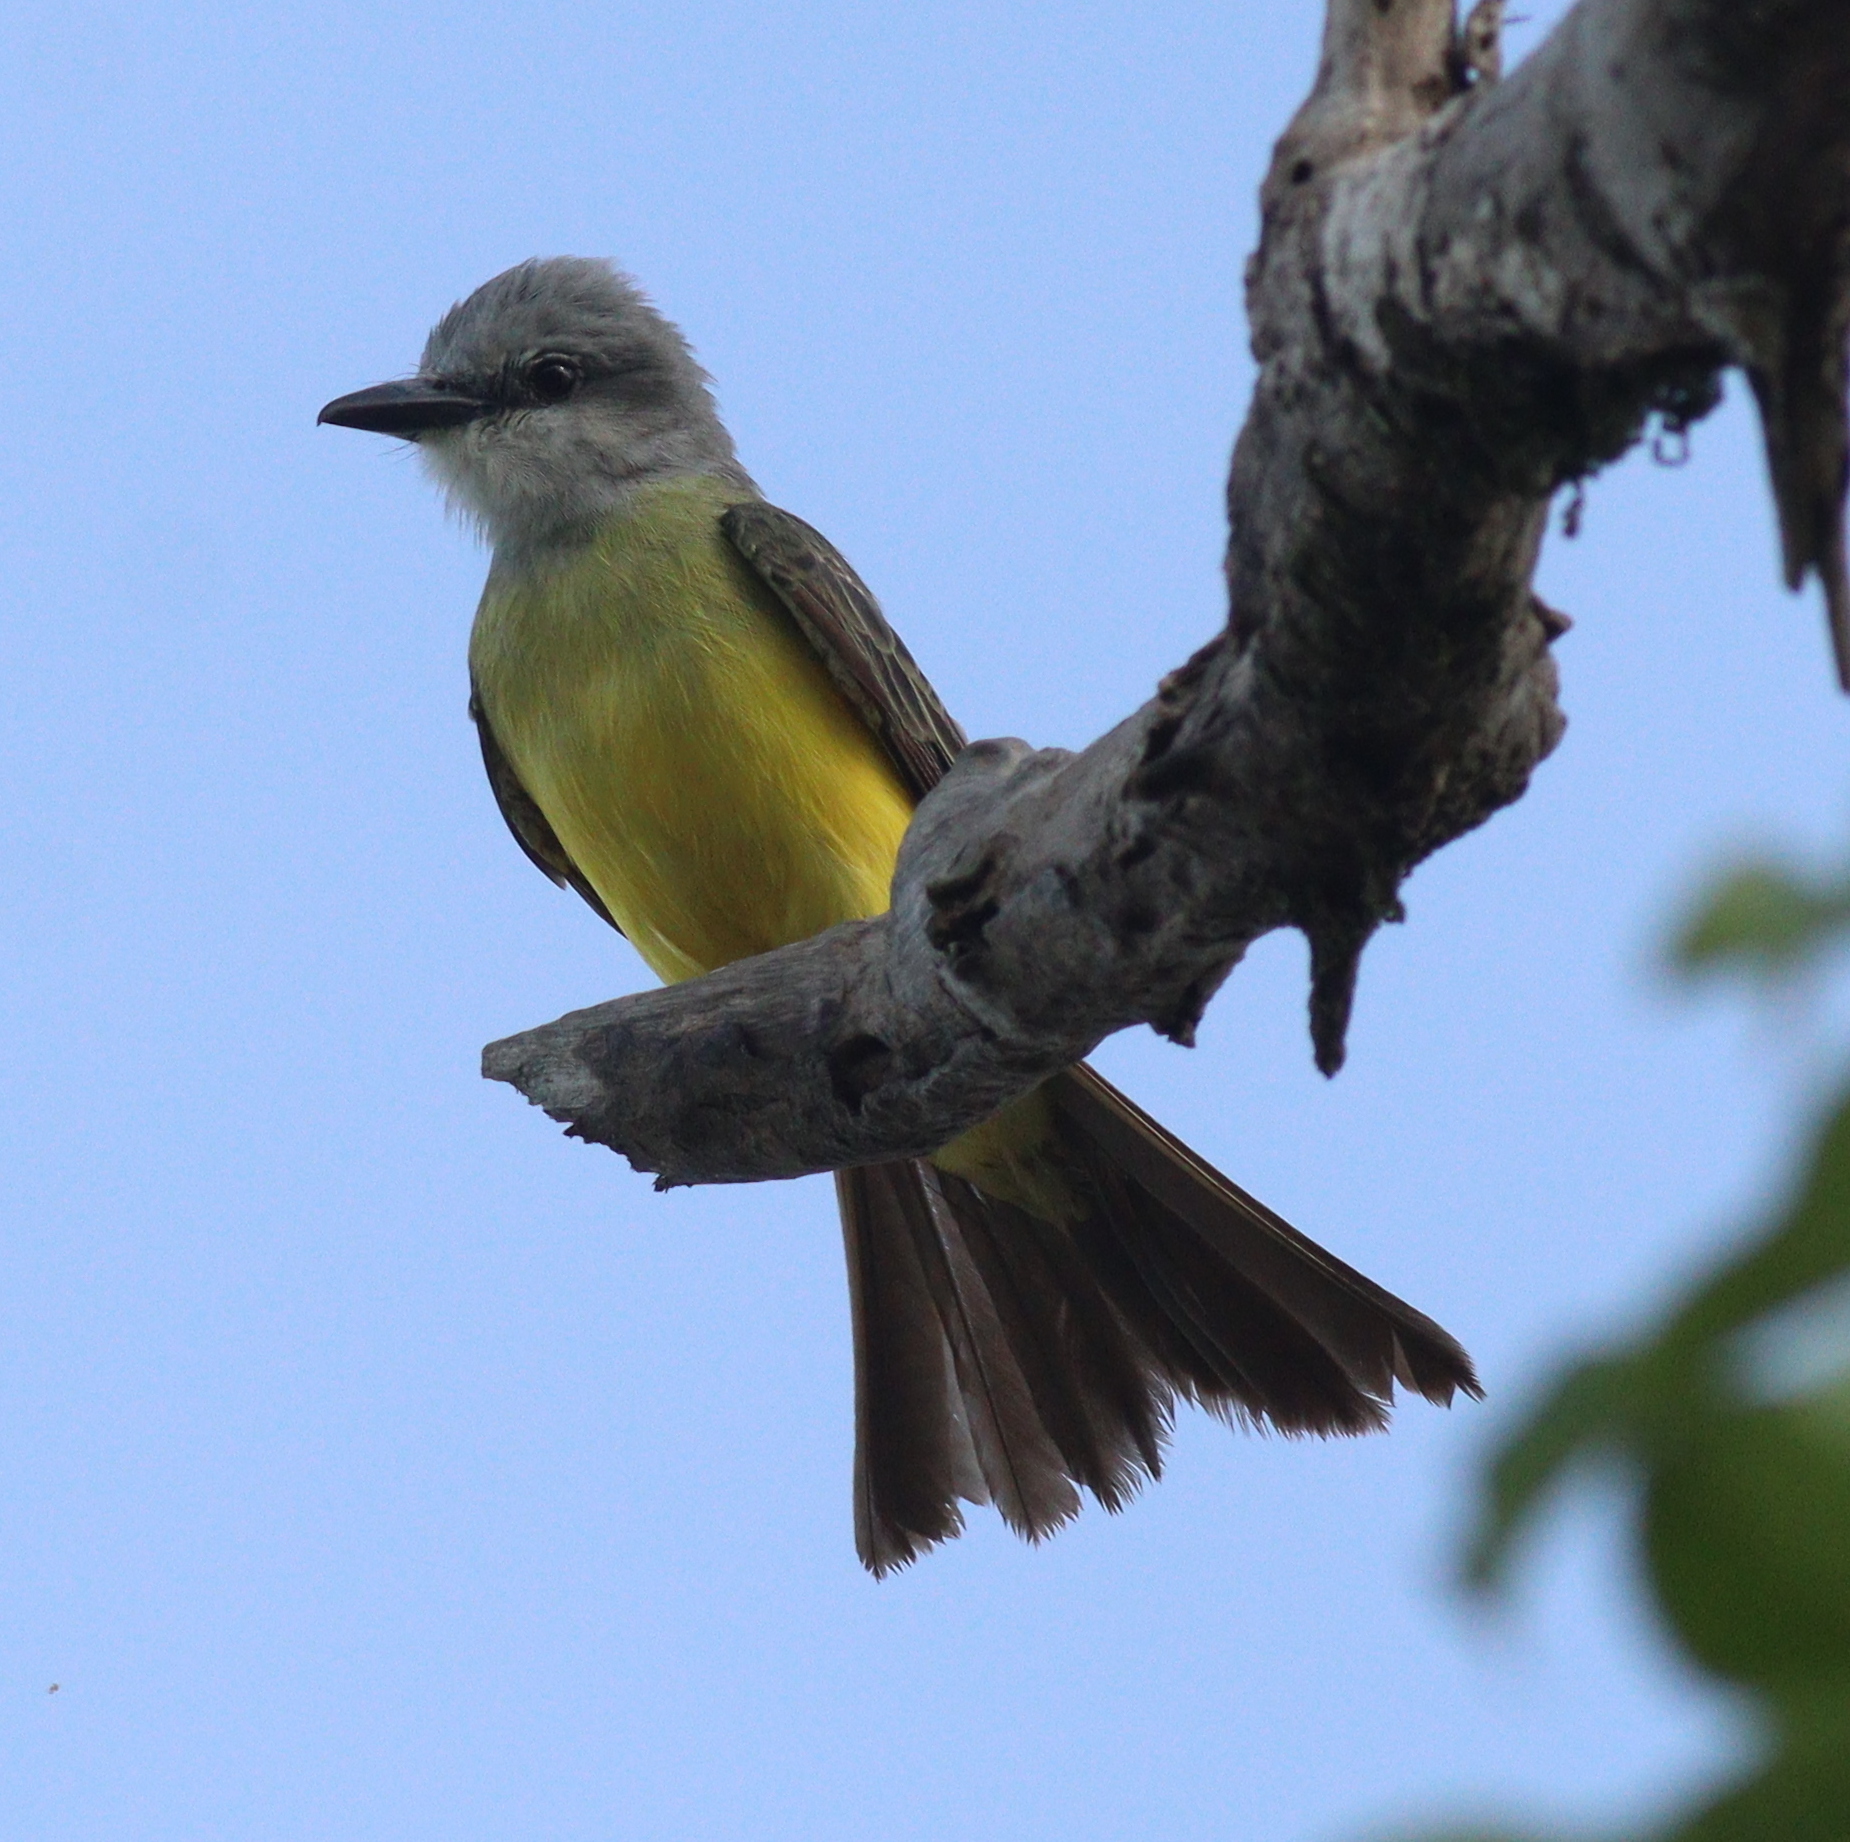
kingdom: Animalia
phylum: Chordata
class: Aves
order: Passeriformes
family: Tyrannidae
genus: Tyrannus
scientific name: Tyrannus melancholicus
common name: Tropical kingbird
